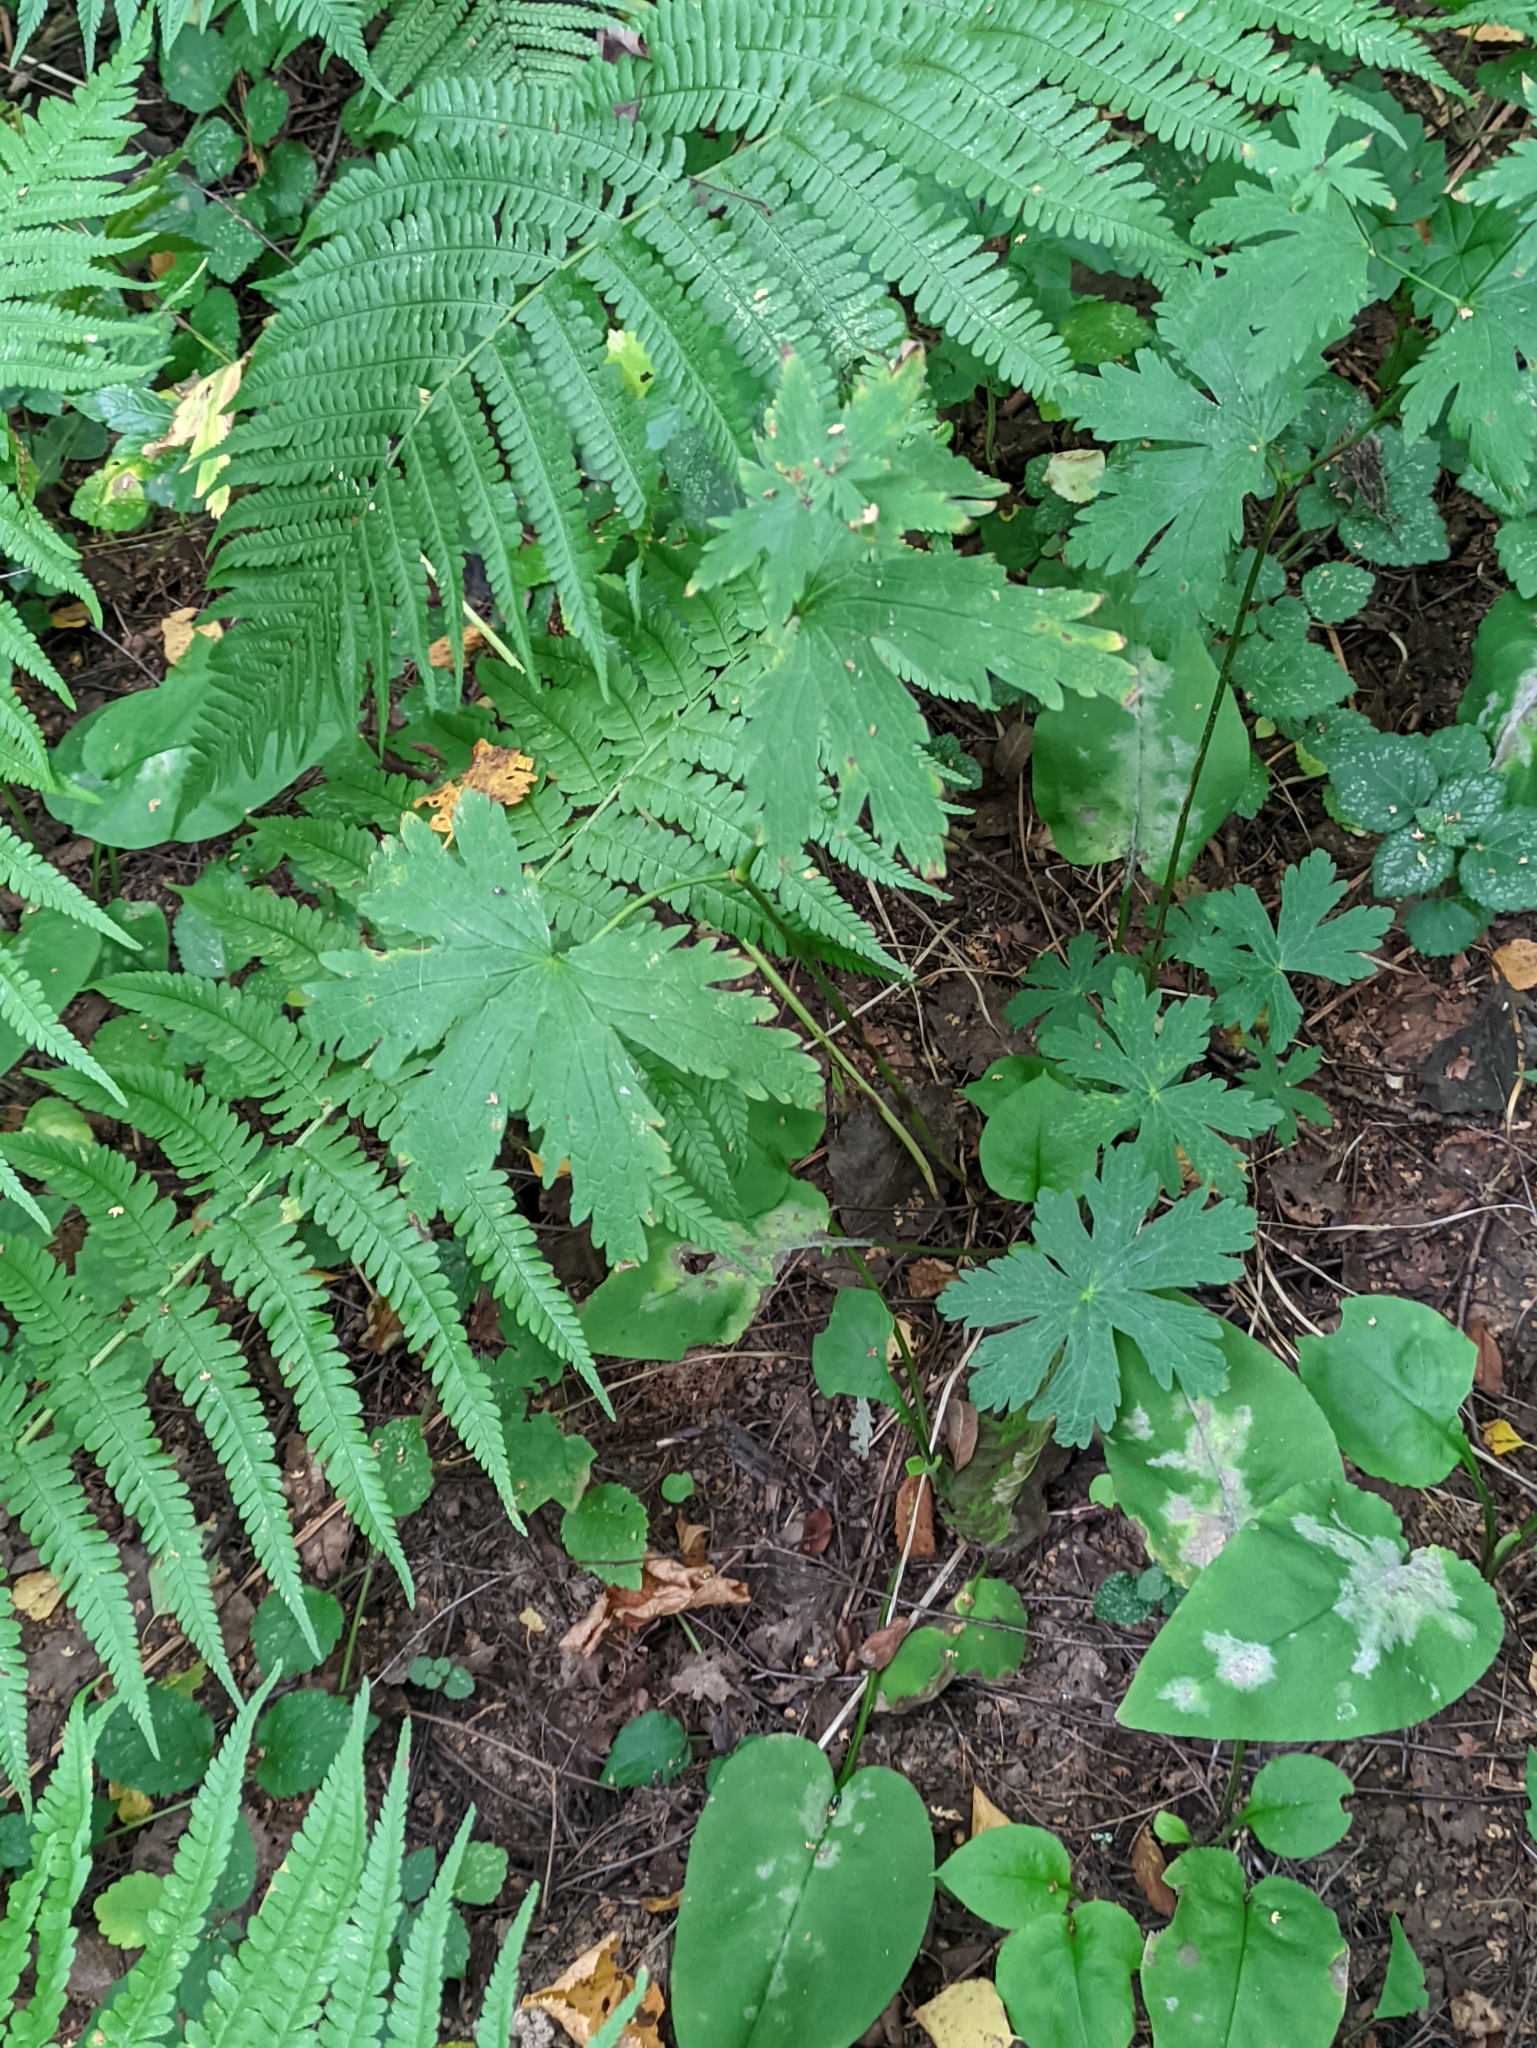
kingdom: Plantae
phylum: Tracheophyta
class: Magnoliopsida
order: Geraniales
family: Geraniaceae
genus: Geranium
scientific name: Geranium sylvaticum
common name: Wood crane's-bill
